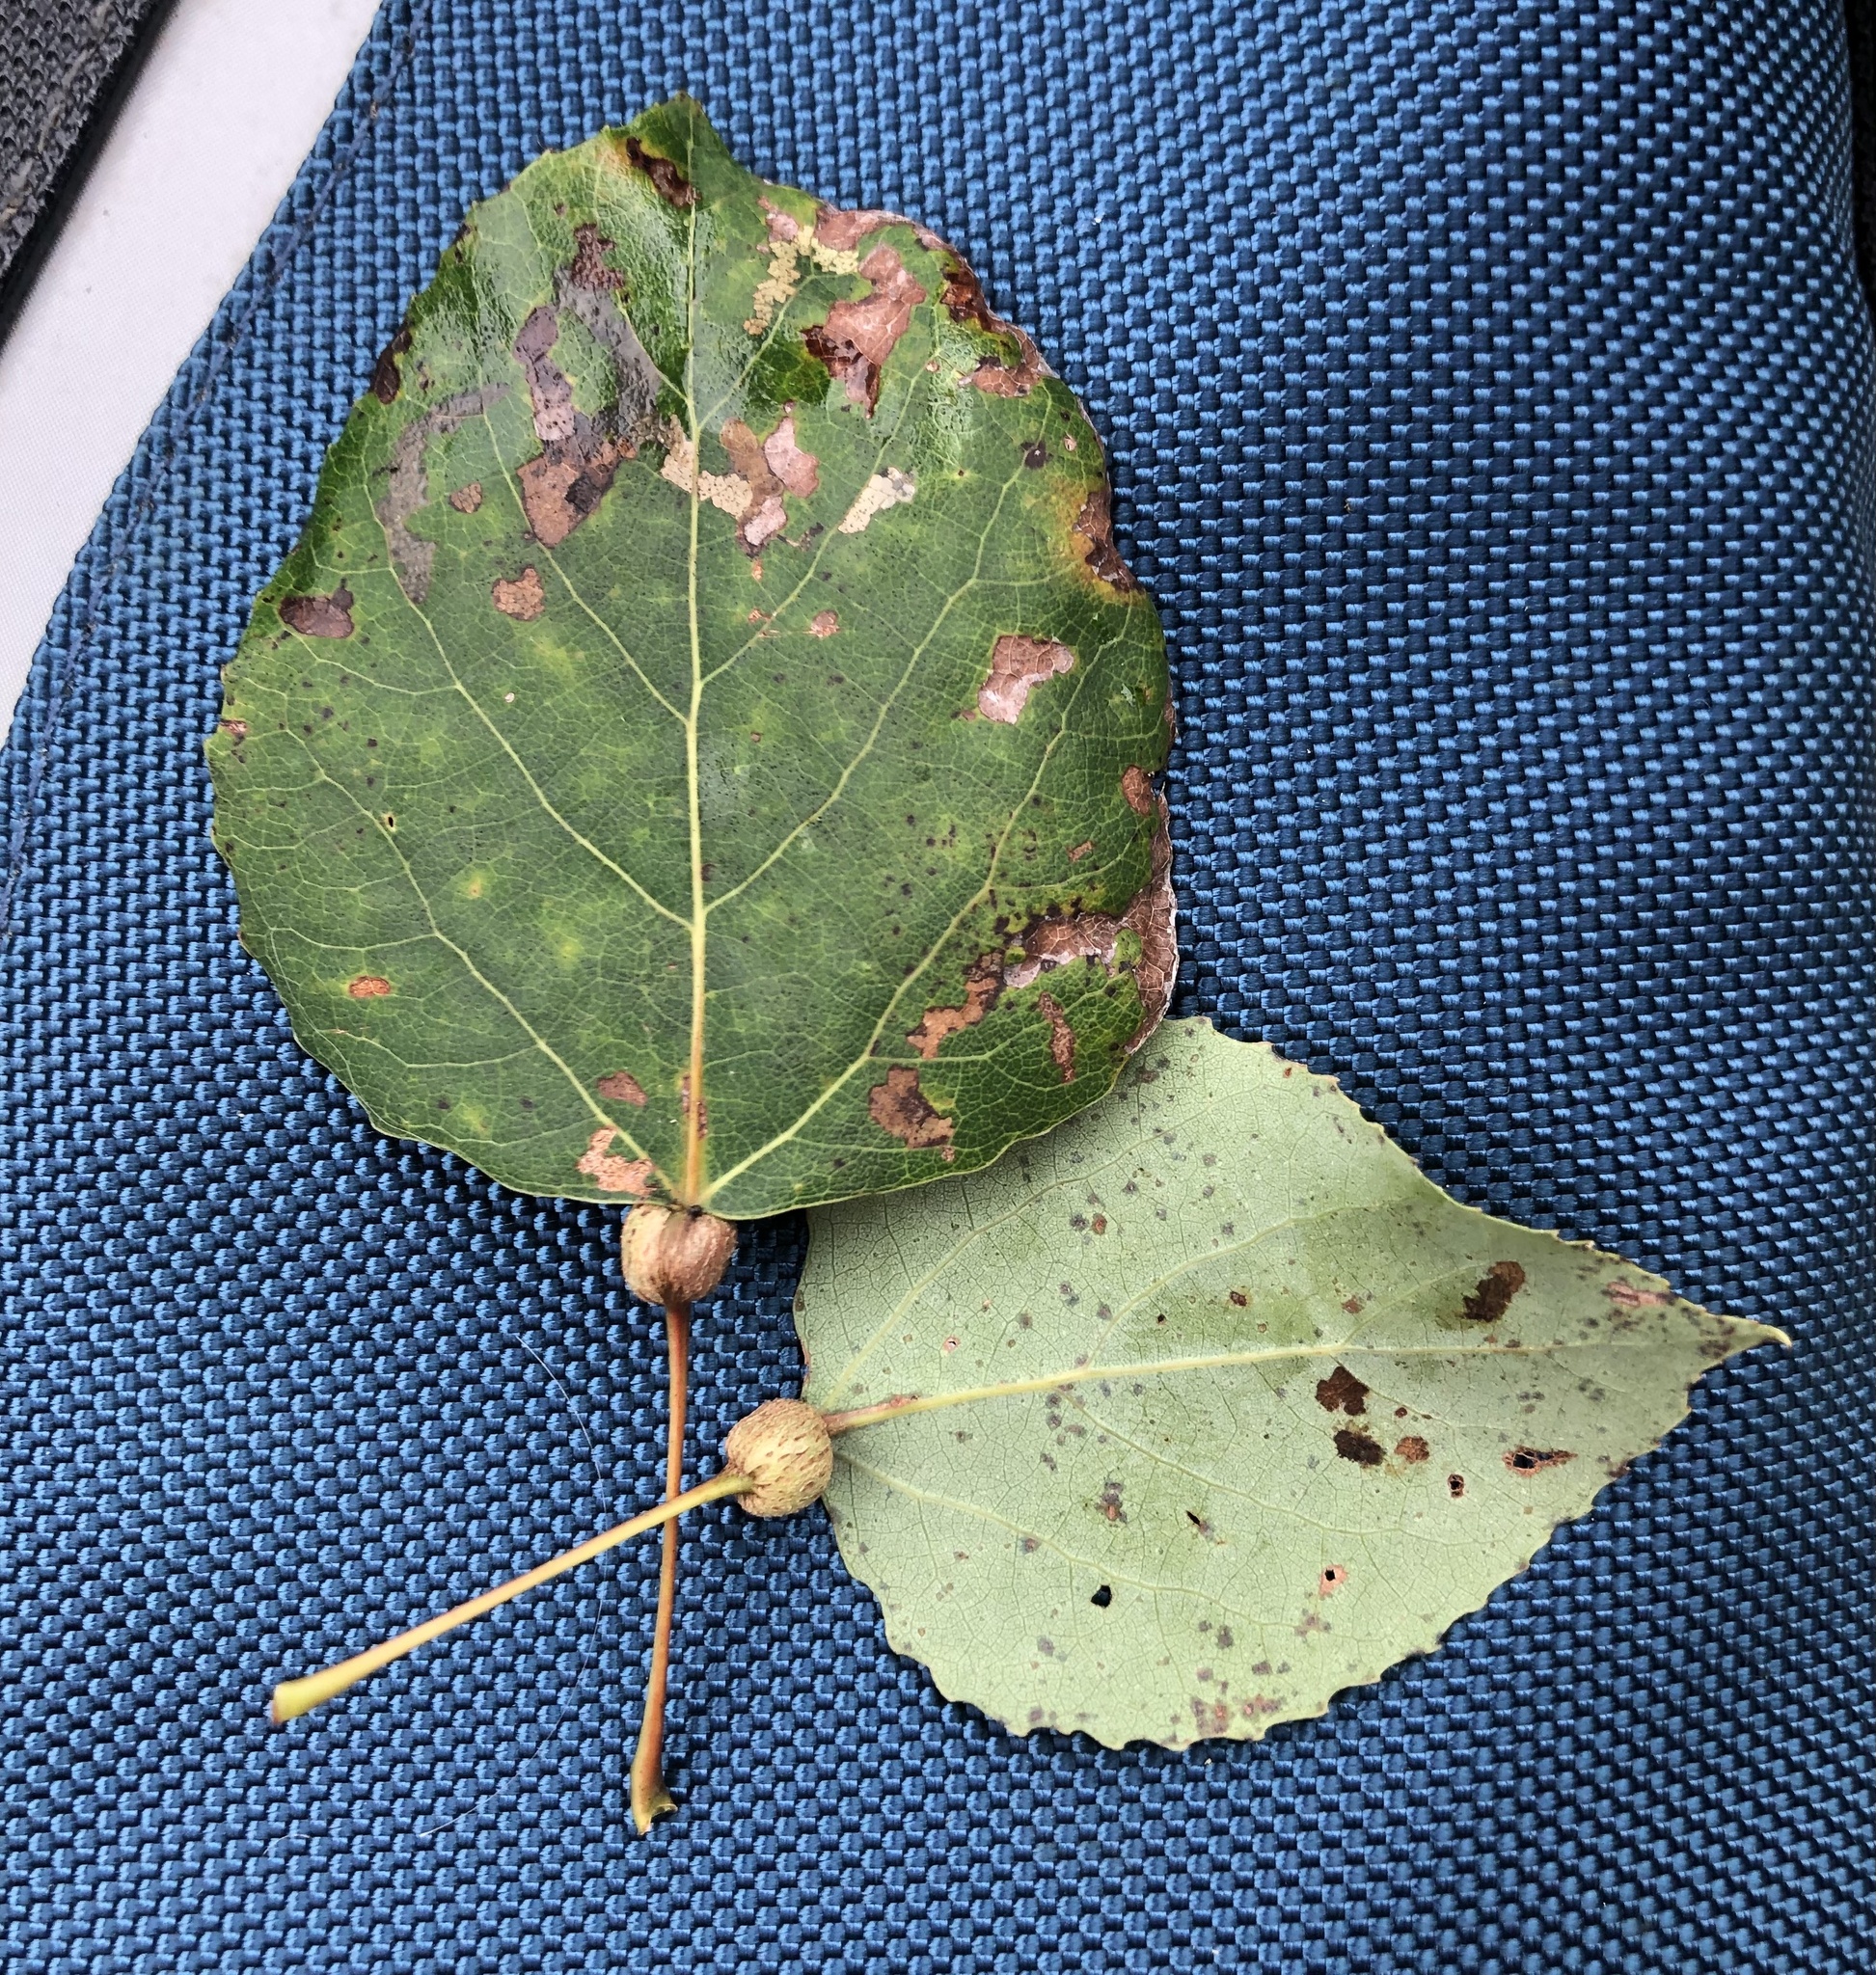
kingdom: Animalia
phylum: Arthropoda
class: Insecta
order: Lepidoptera
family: Nepticulidae
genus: Ectoedemia
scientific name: Ectoedemia populella
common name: Aspen petiole gall moth
